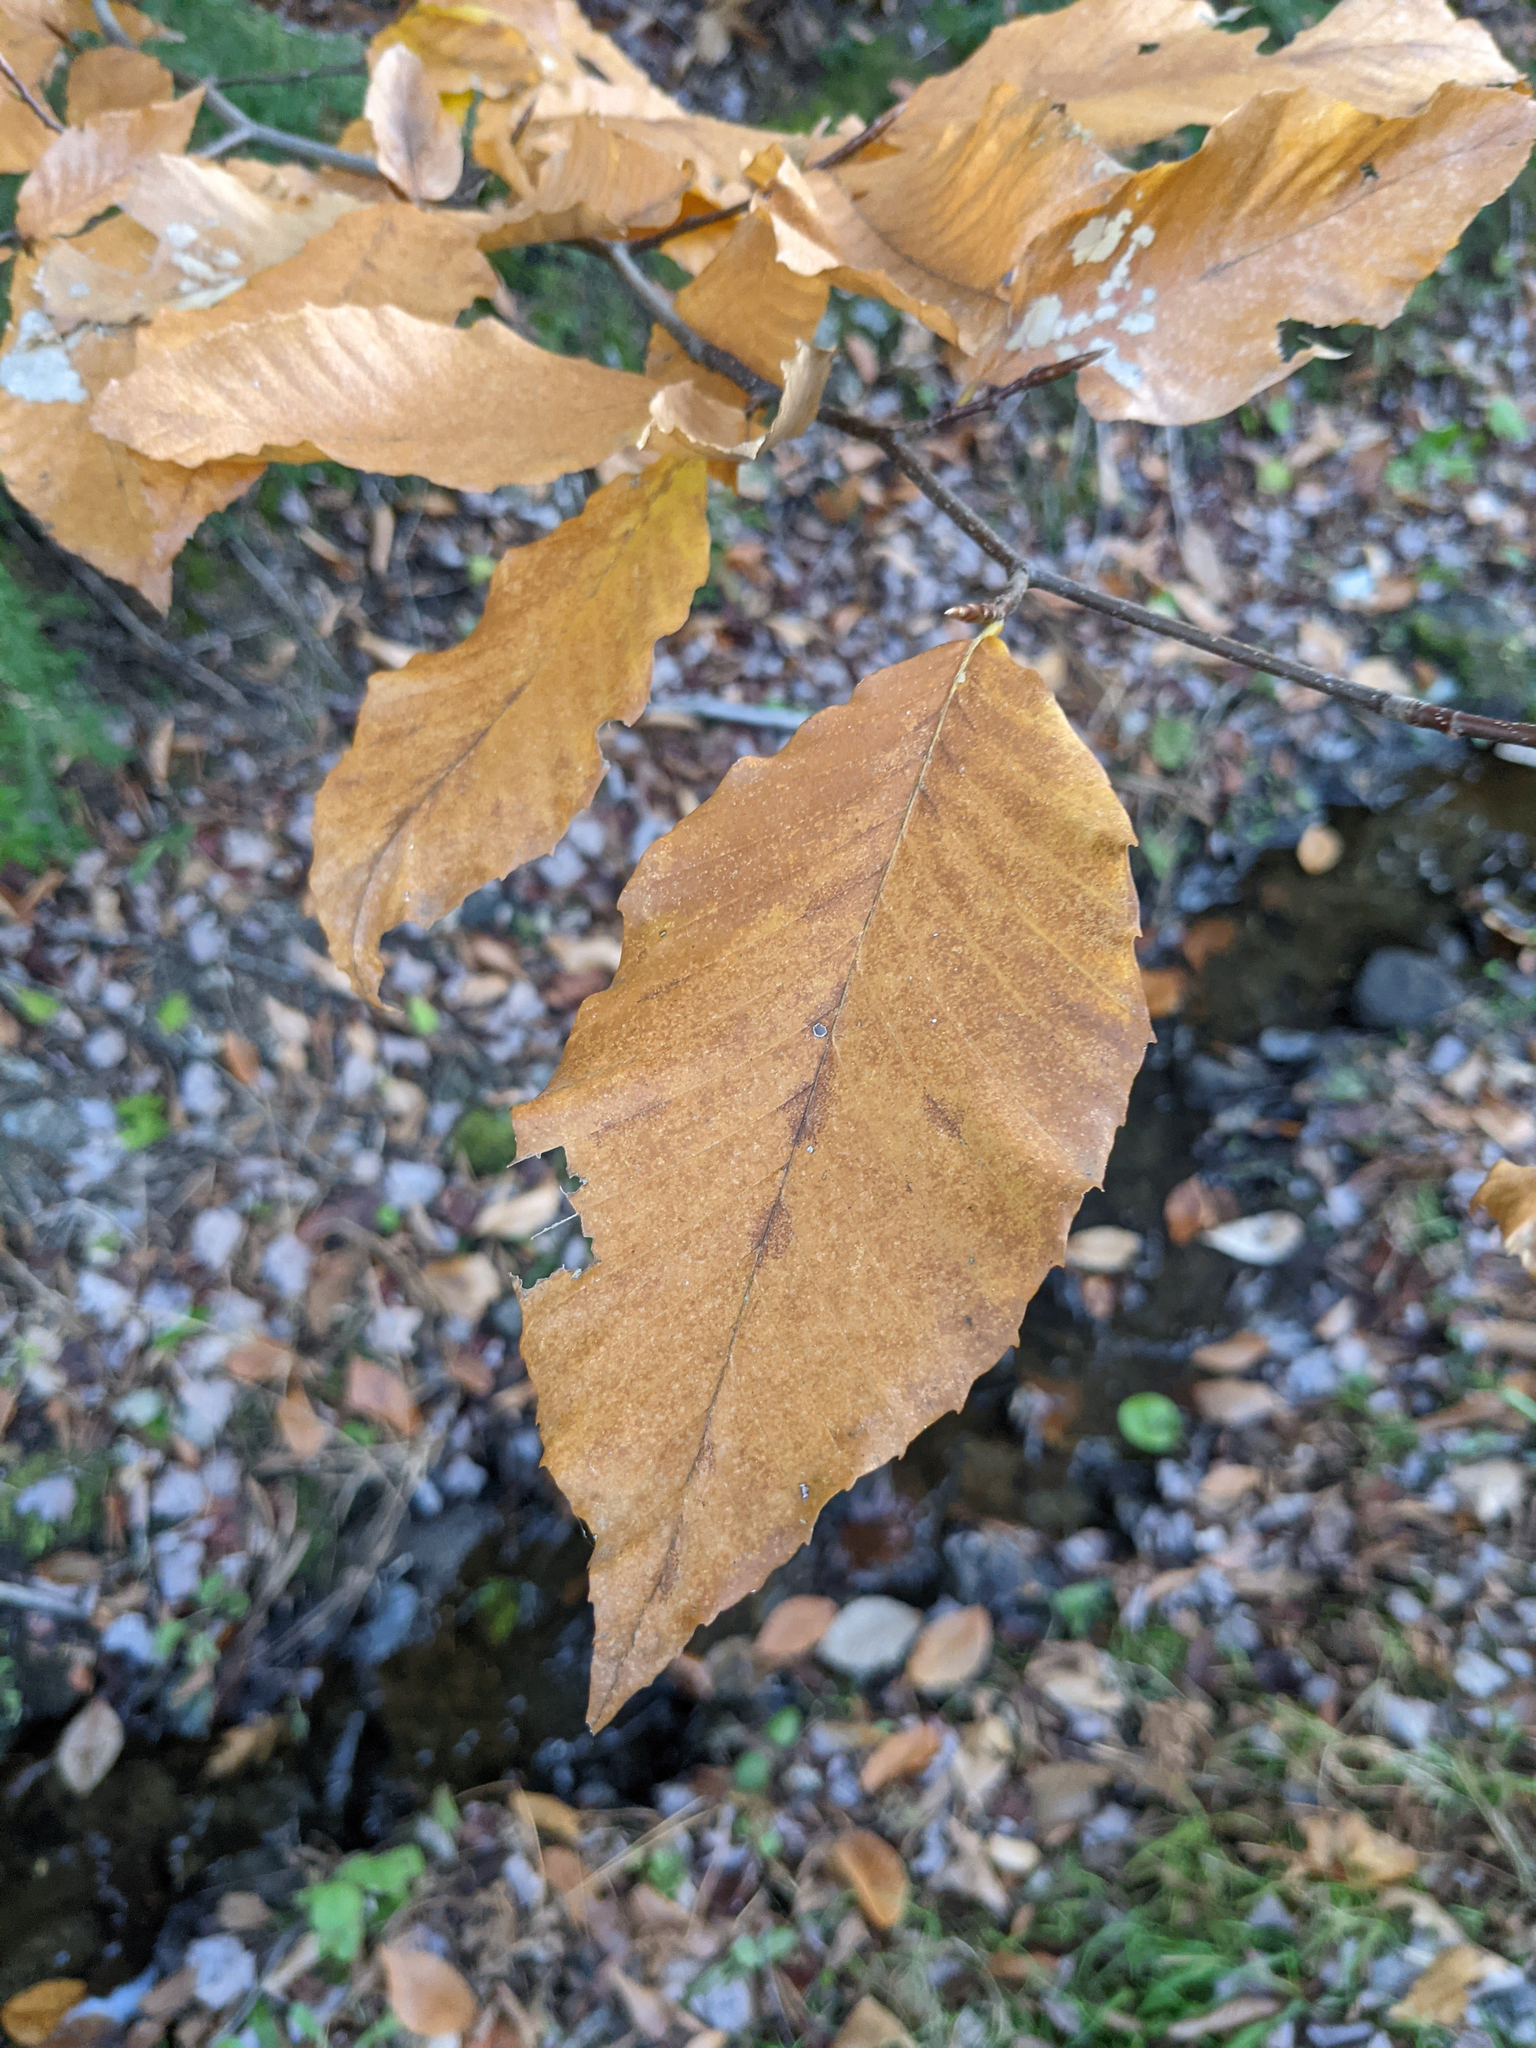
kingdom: Plantae
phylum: Tracheophyta
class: Magnoliopsida
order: Fagales
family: Fagaceae
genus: Fagus
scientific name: Fagus grandifolia
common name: American beech
